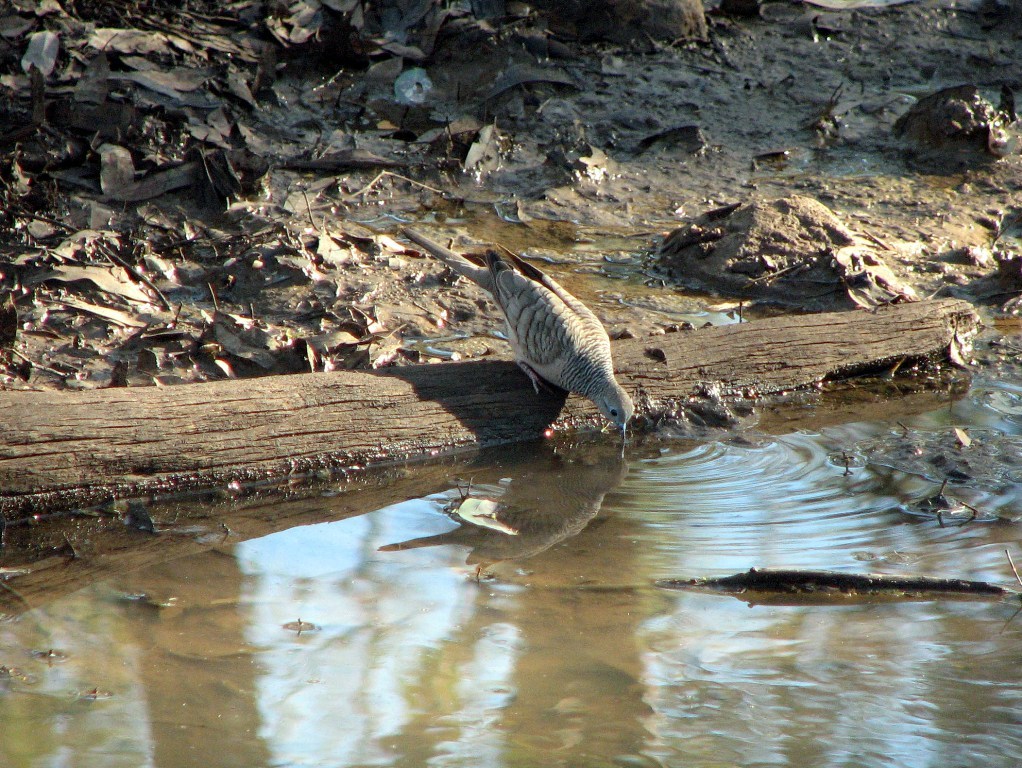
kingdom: Animalia
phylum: Chordata
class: Aves
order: Columbiformes
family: Columbidae
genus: Geopelia
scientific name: Geopelia placida
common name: Peaceful dove
